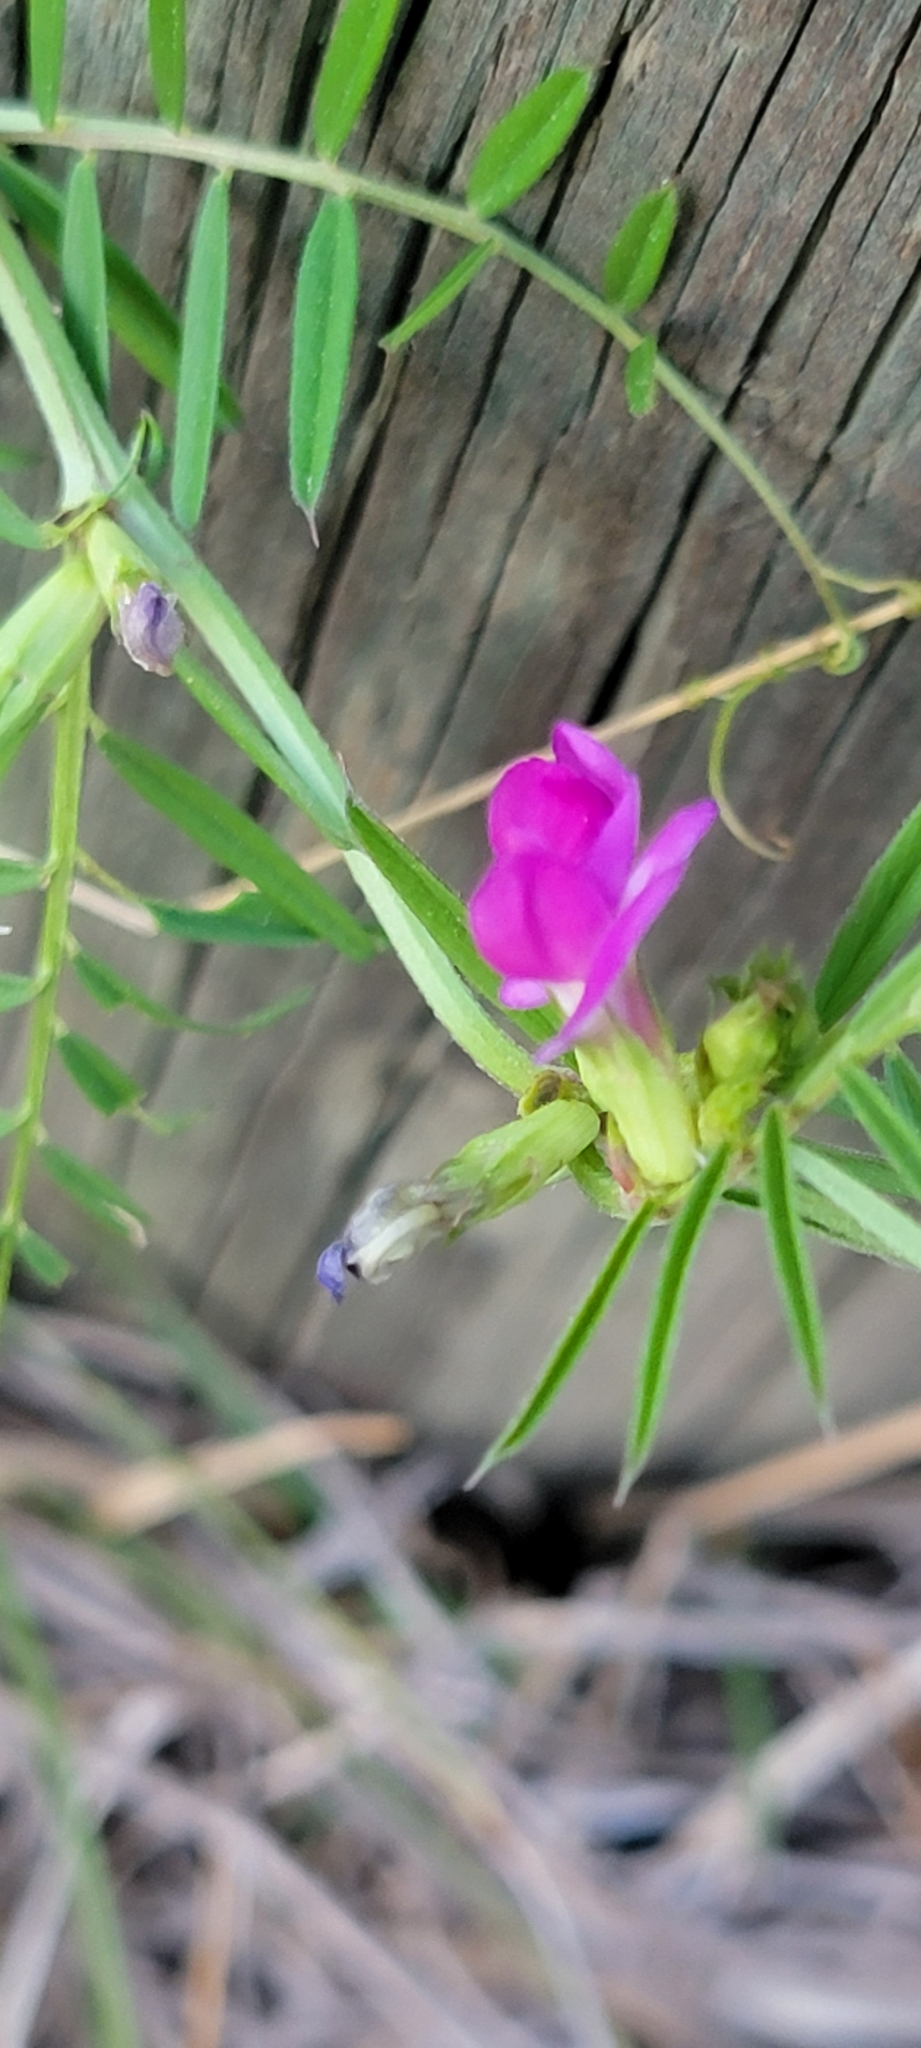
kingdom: Plantae
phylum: Tracheophyta
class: Magnoliopsida
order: Fabales
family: Fabaceae
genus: Vicia
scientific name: Vicia sativa
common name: Garden vetch
